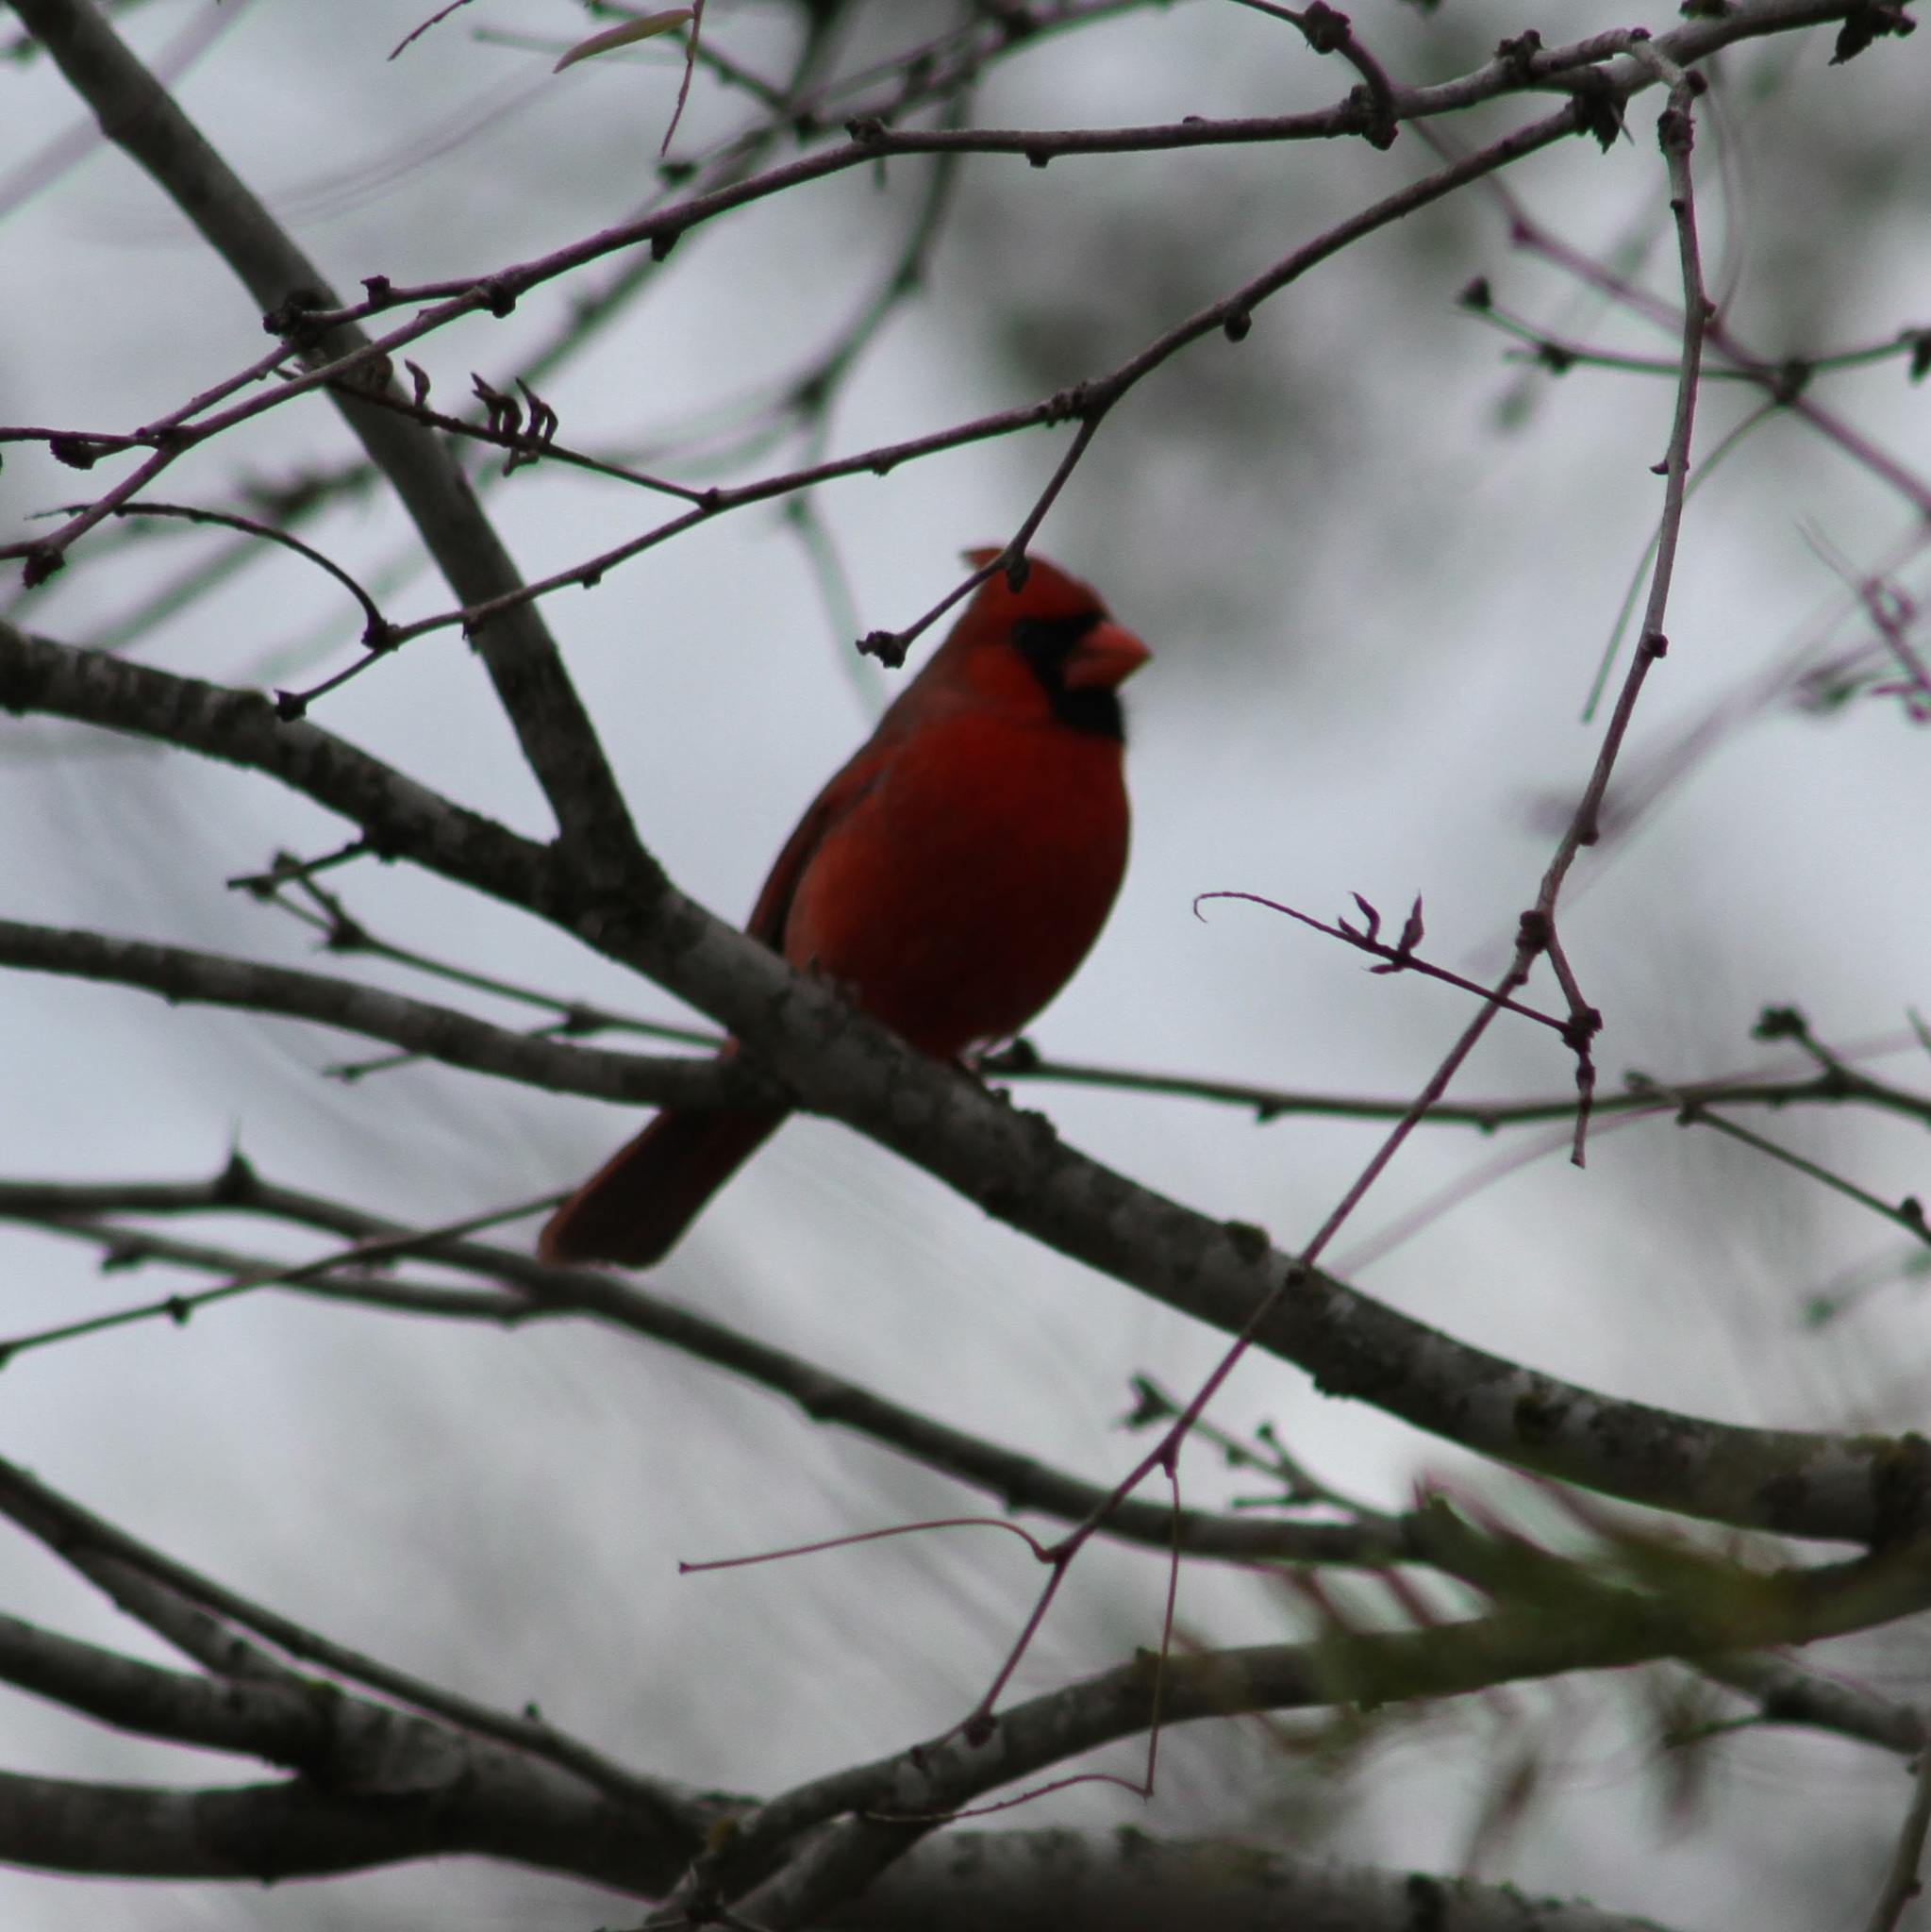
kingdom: Animalia
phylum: Chordata
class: Aves
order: Passeriformes
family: Cardinalidae
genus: Cardinalis
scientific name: Cardinalis cardinalis
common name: Northern cardinal
